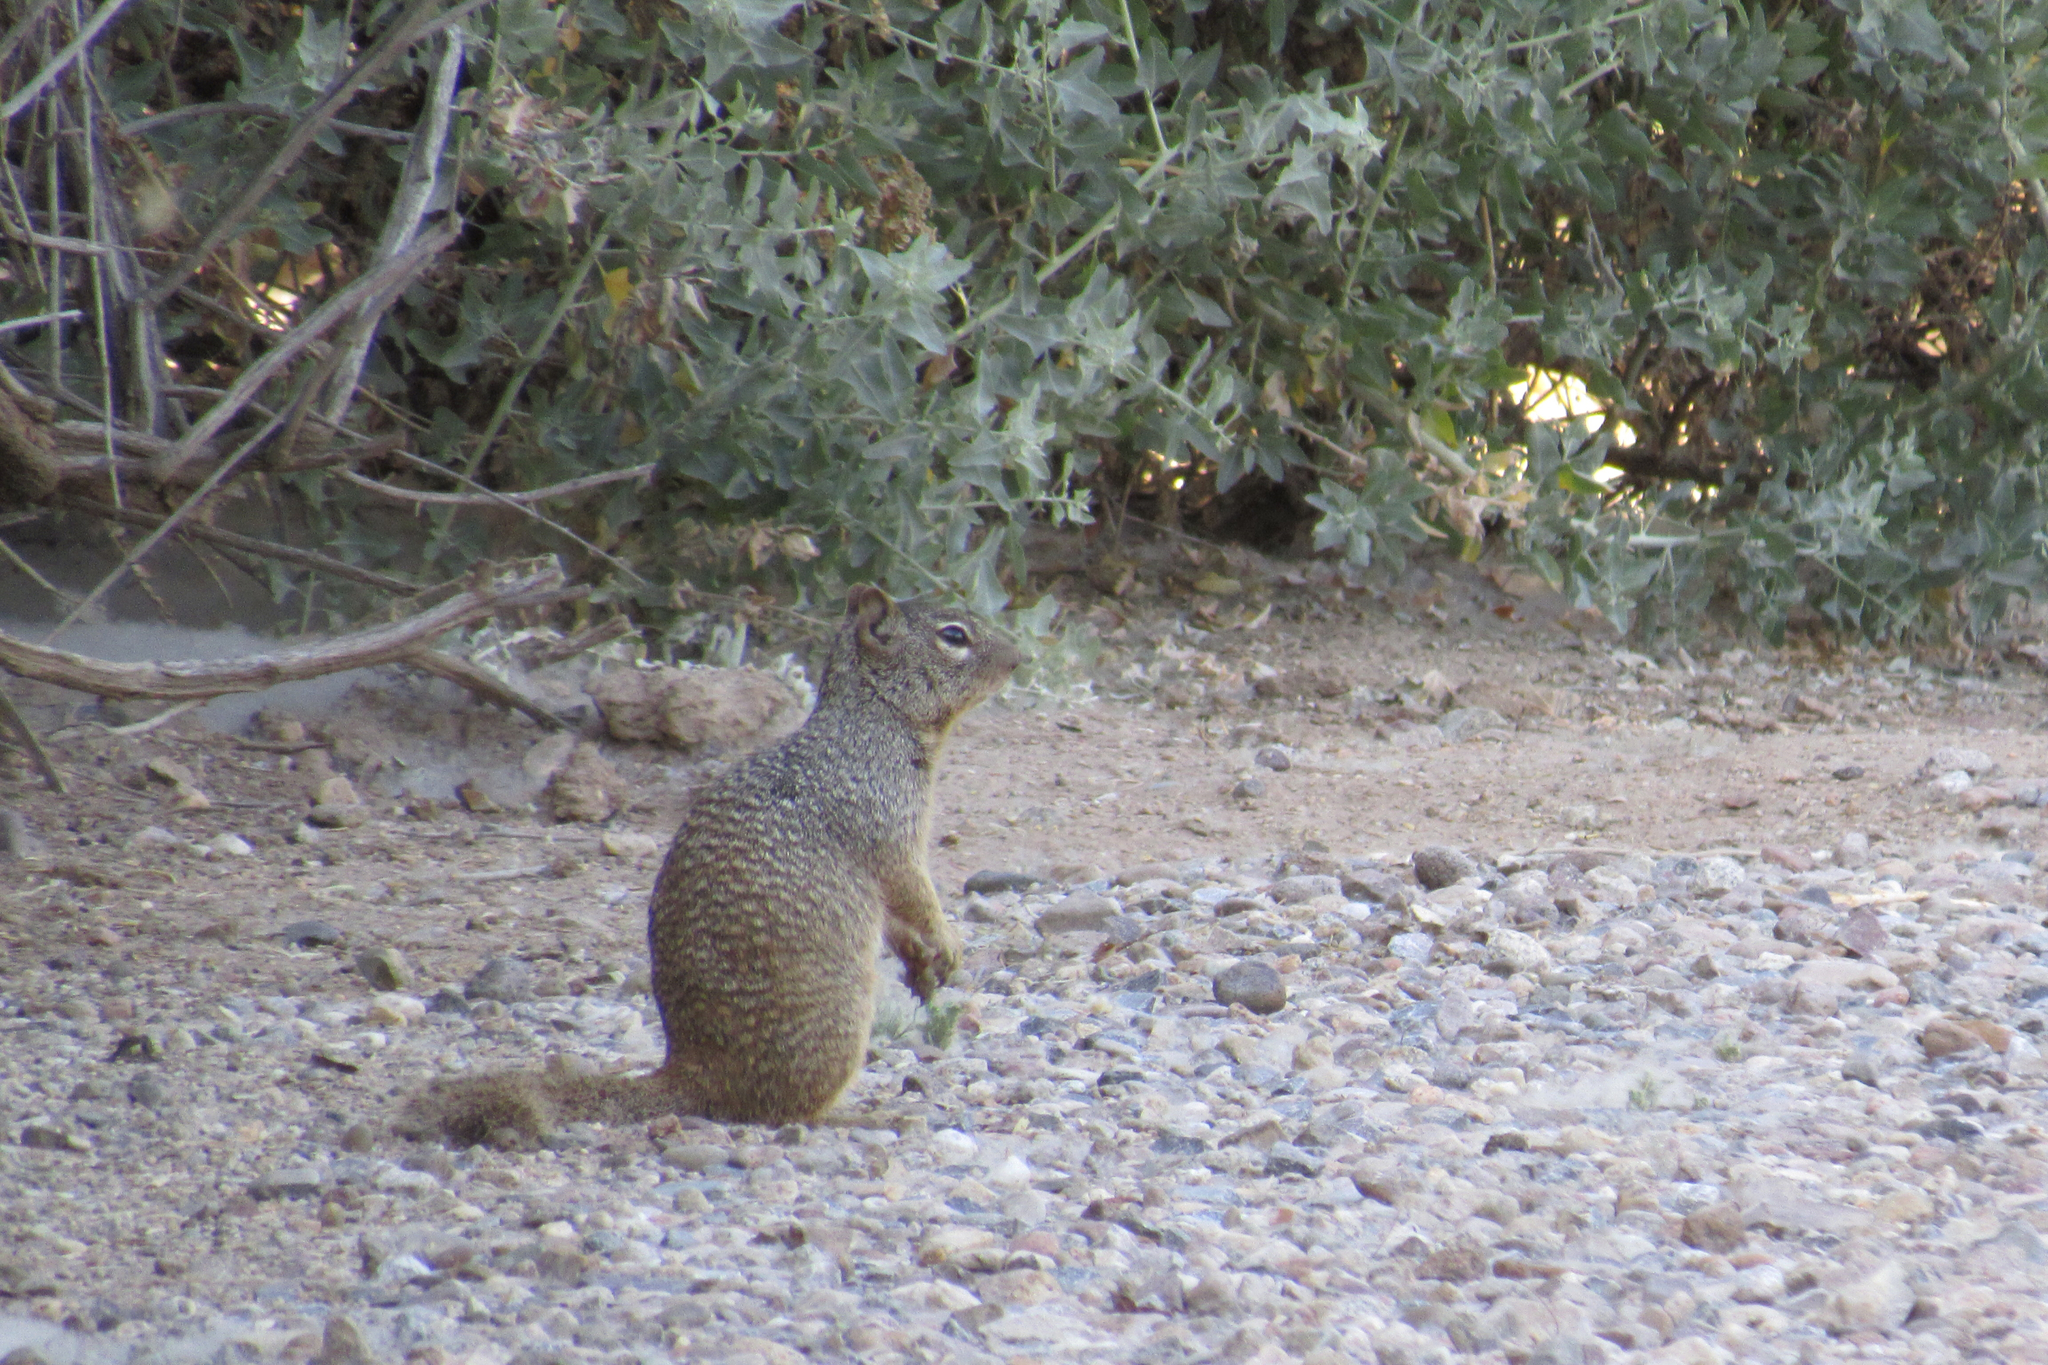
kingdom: Animalia
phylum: Chordata
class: Mammalia
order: Rodentia
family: Sciuridae
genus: Otospermophilus
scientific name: Otospermophilus variegatus
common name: Rock squirrel
